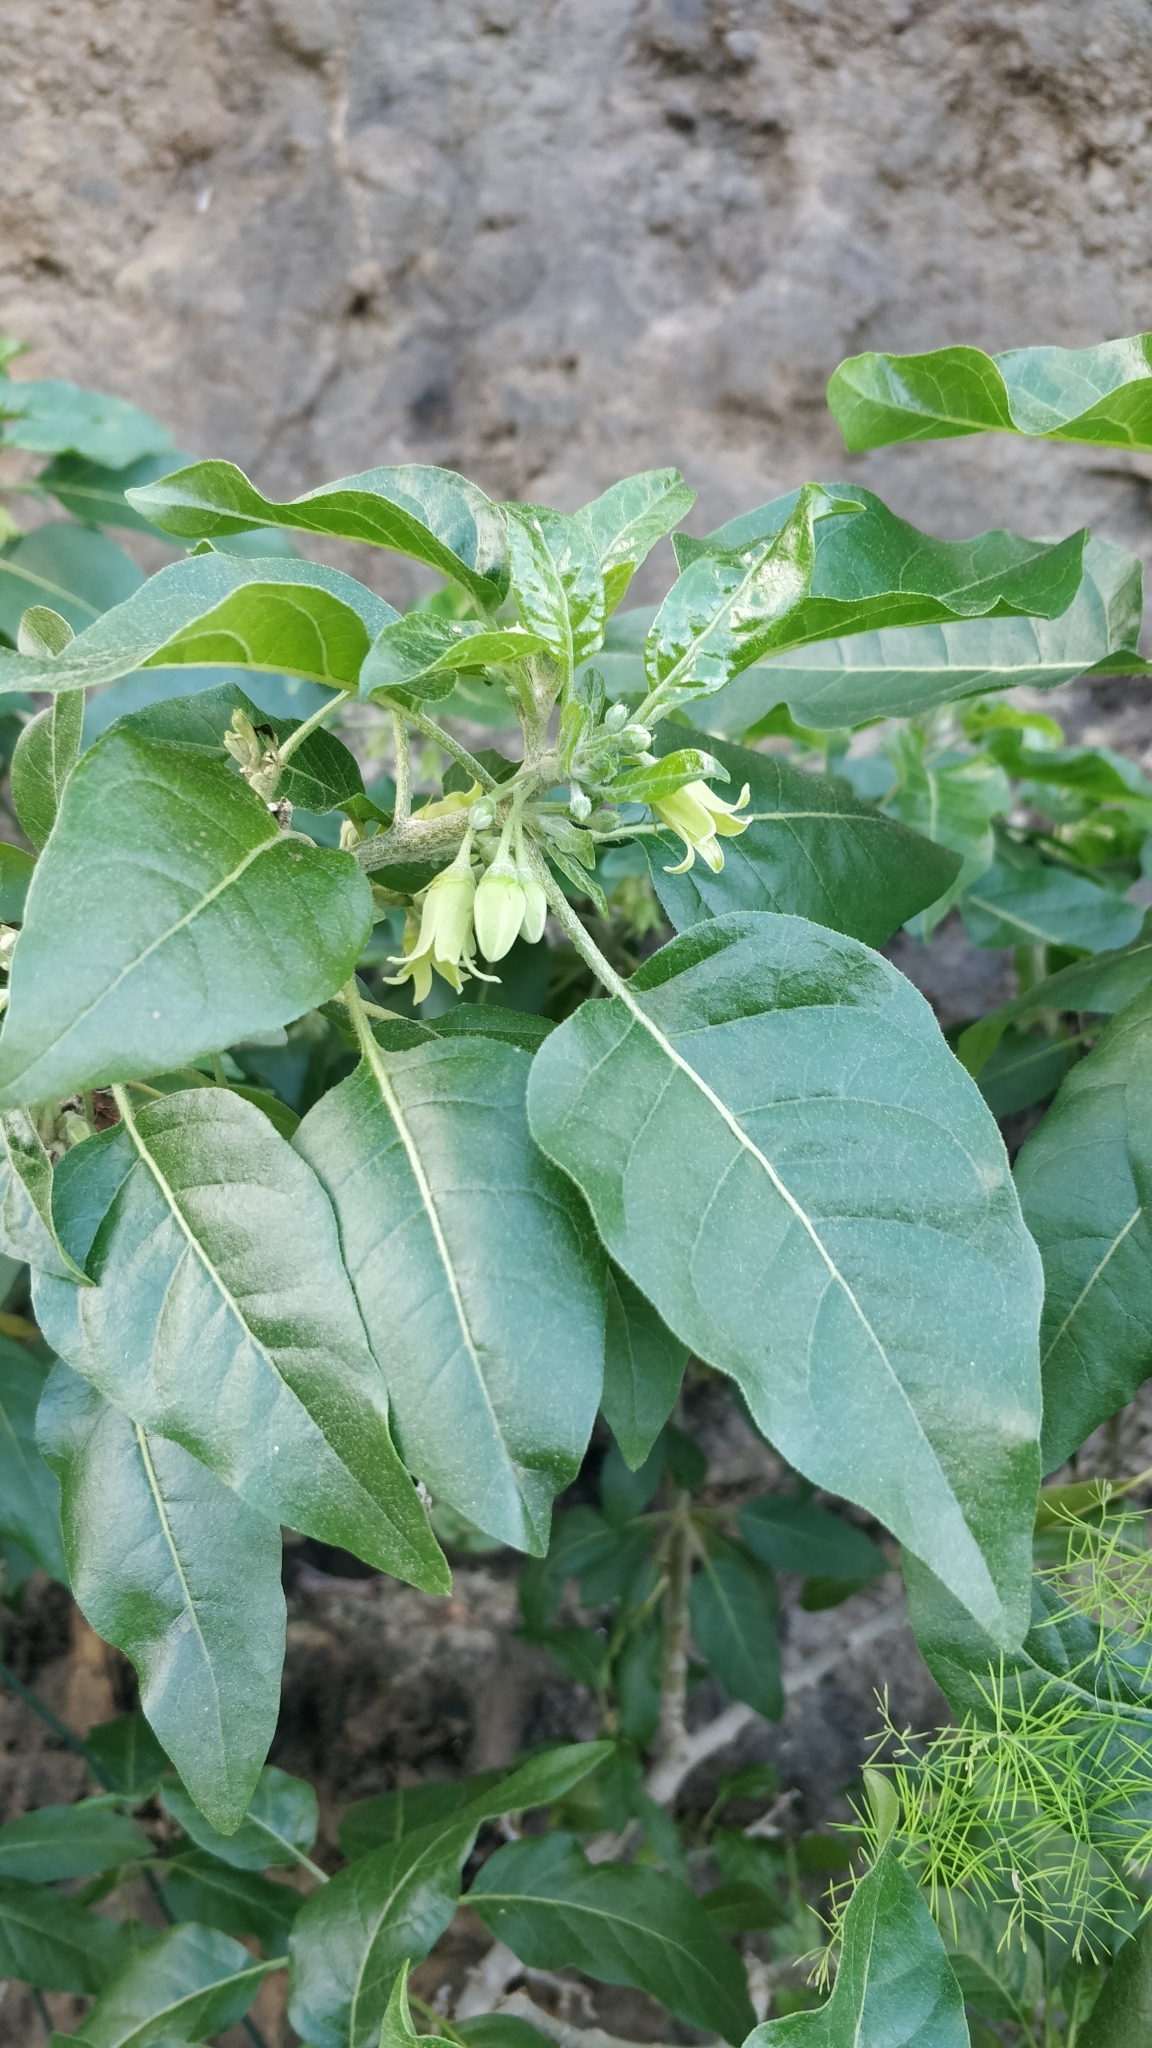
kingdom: Plantae
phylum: Tracheophyta
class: Magnoliopsida
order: Solanales
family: Solanaceae
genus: Withania
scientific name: Withania aristata
